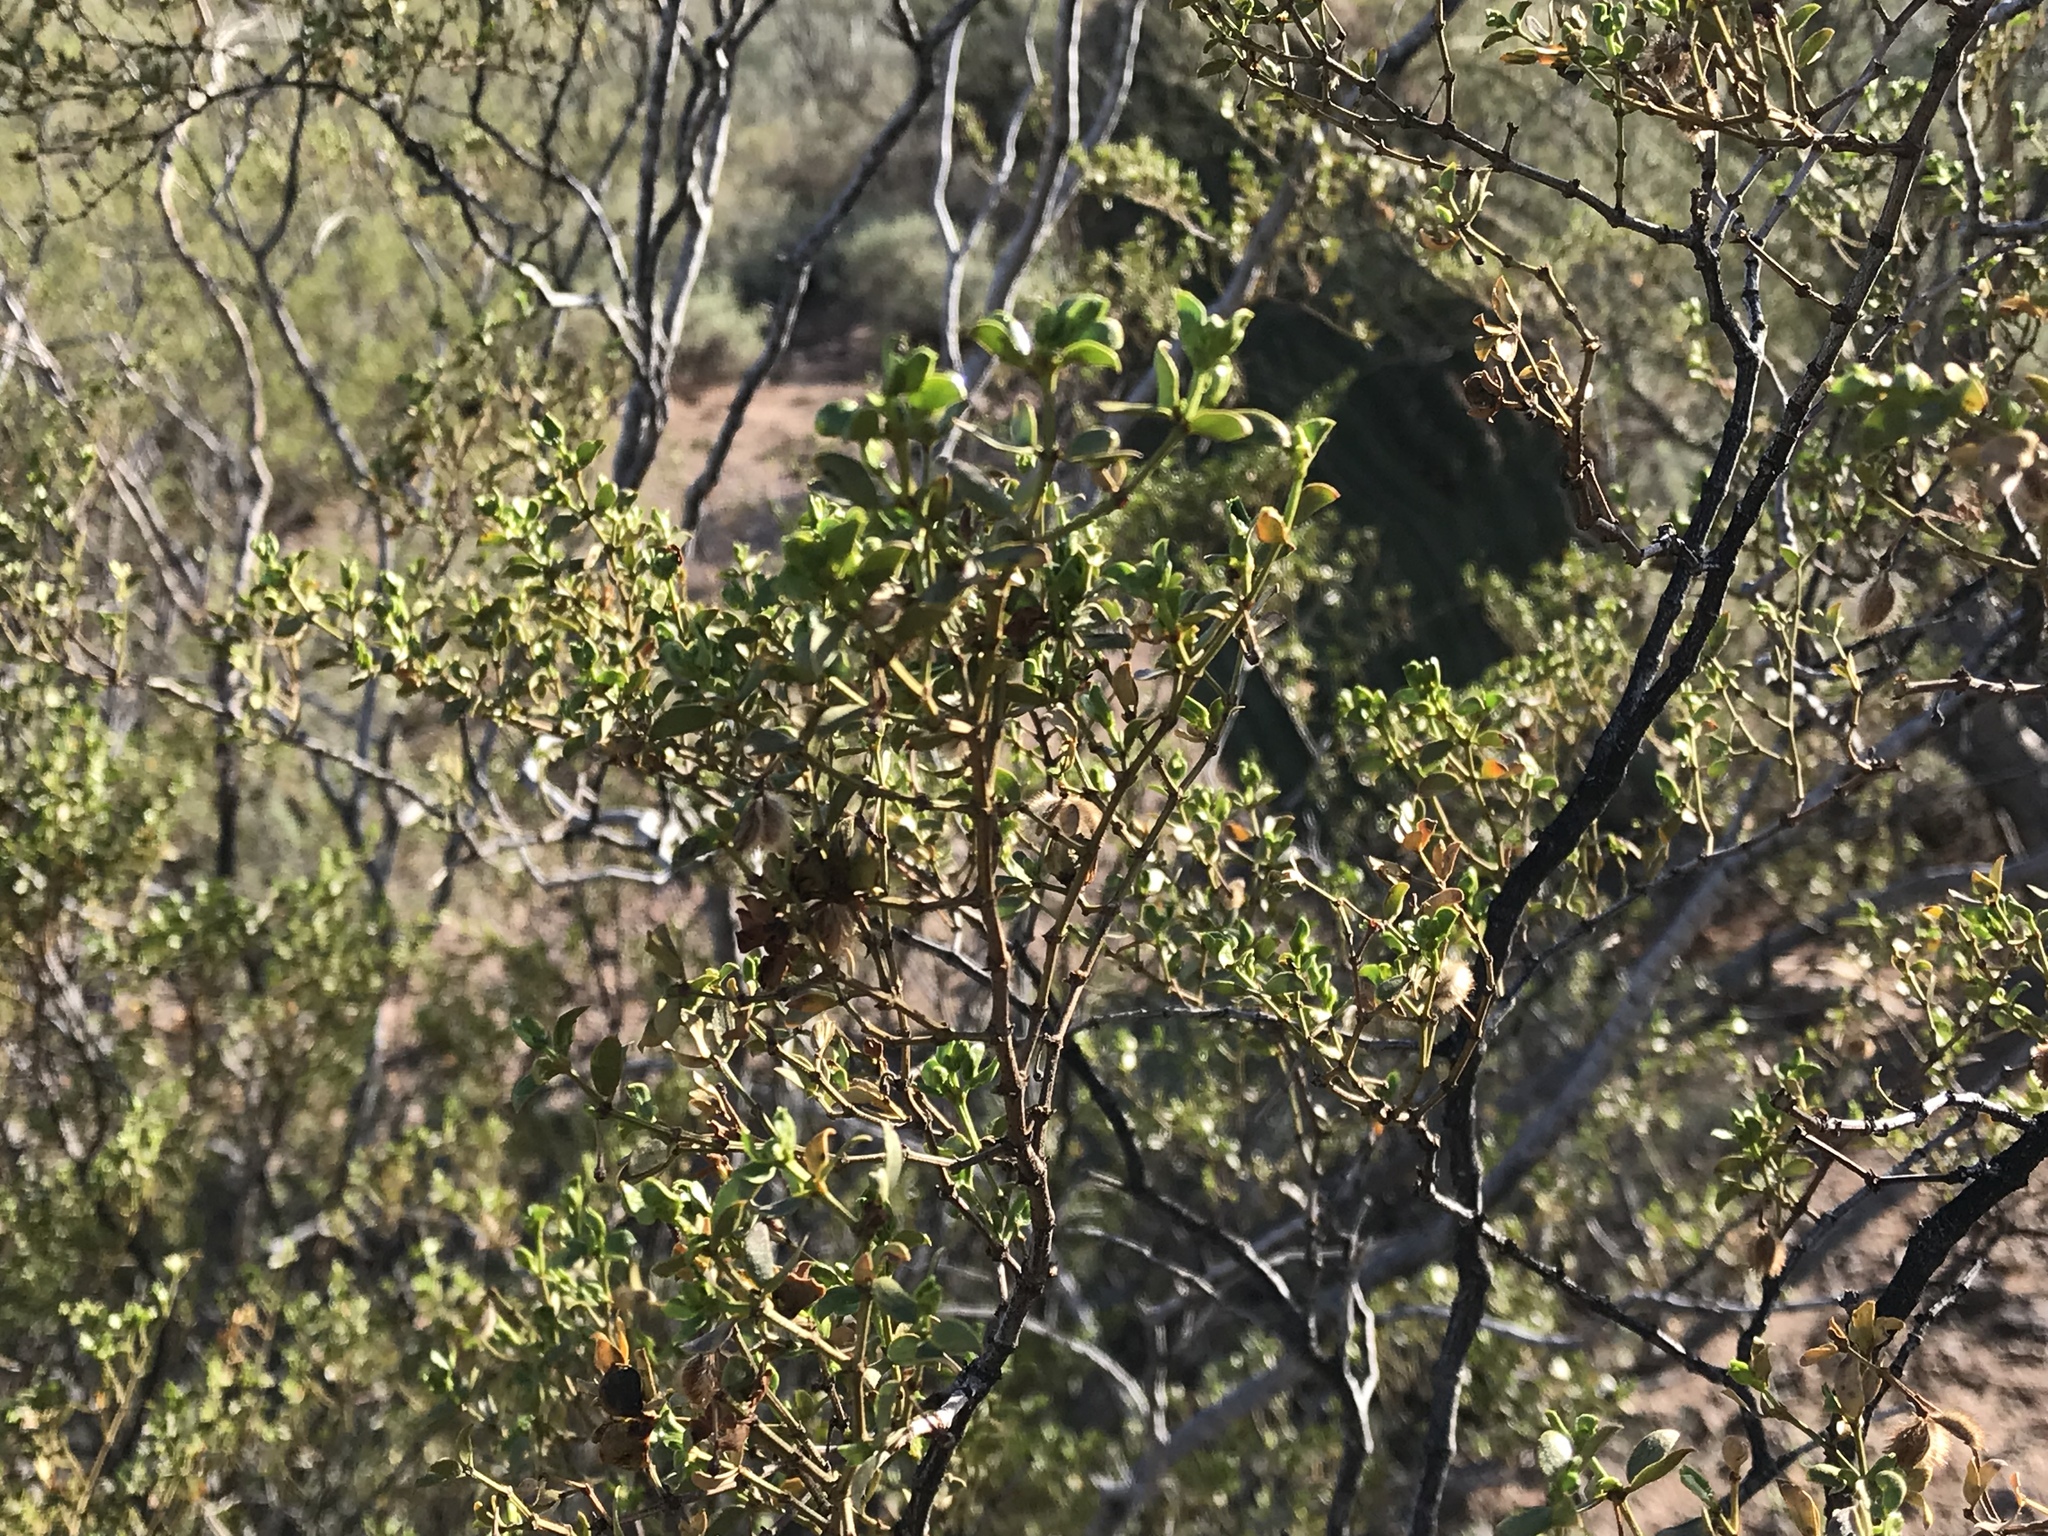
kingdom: Plantae
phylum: Tracheophyta
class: Magnoliopsida
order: Zygophyllales
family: Zygophyllaceae
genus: Larrea
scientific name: Larrea tridentata
